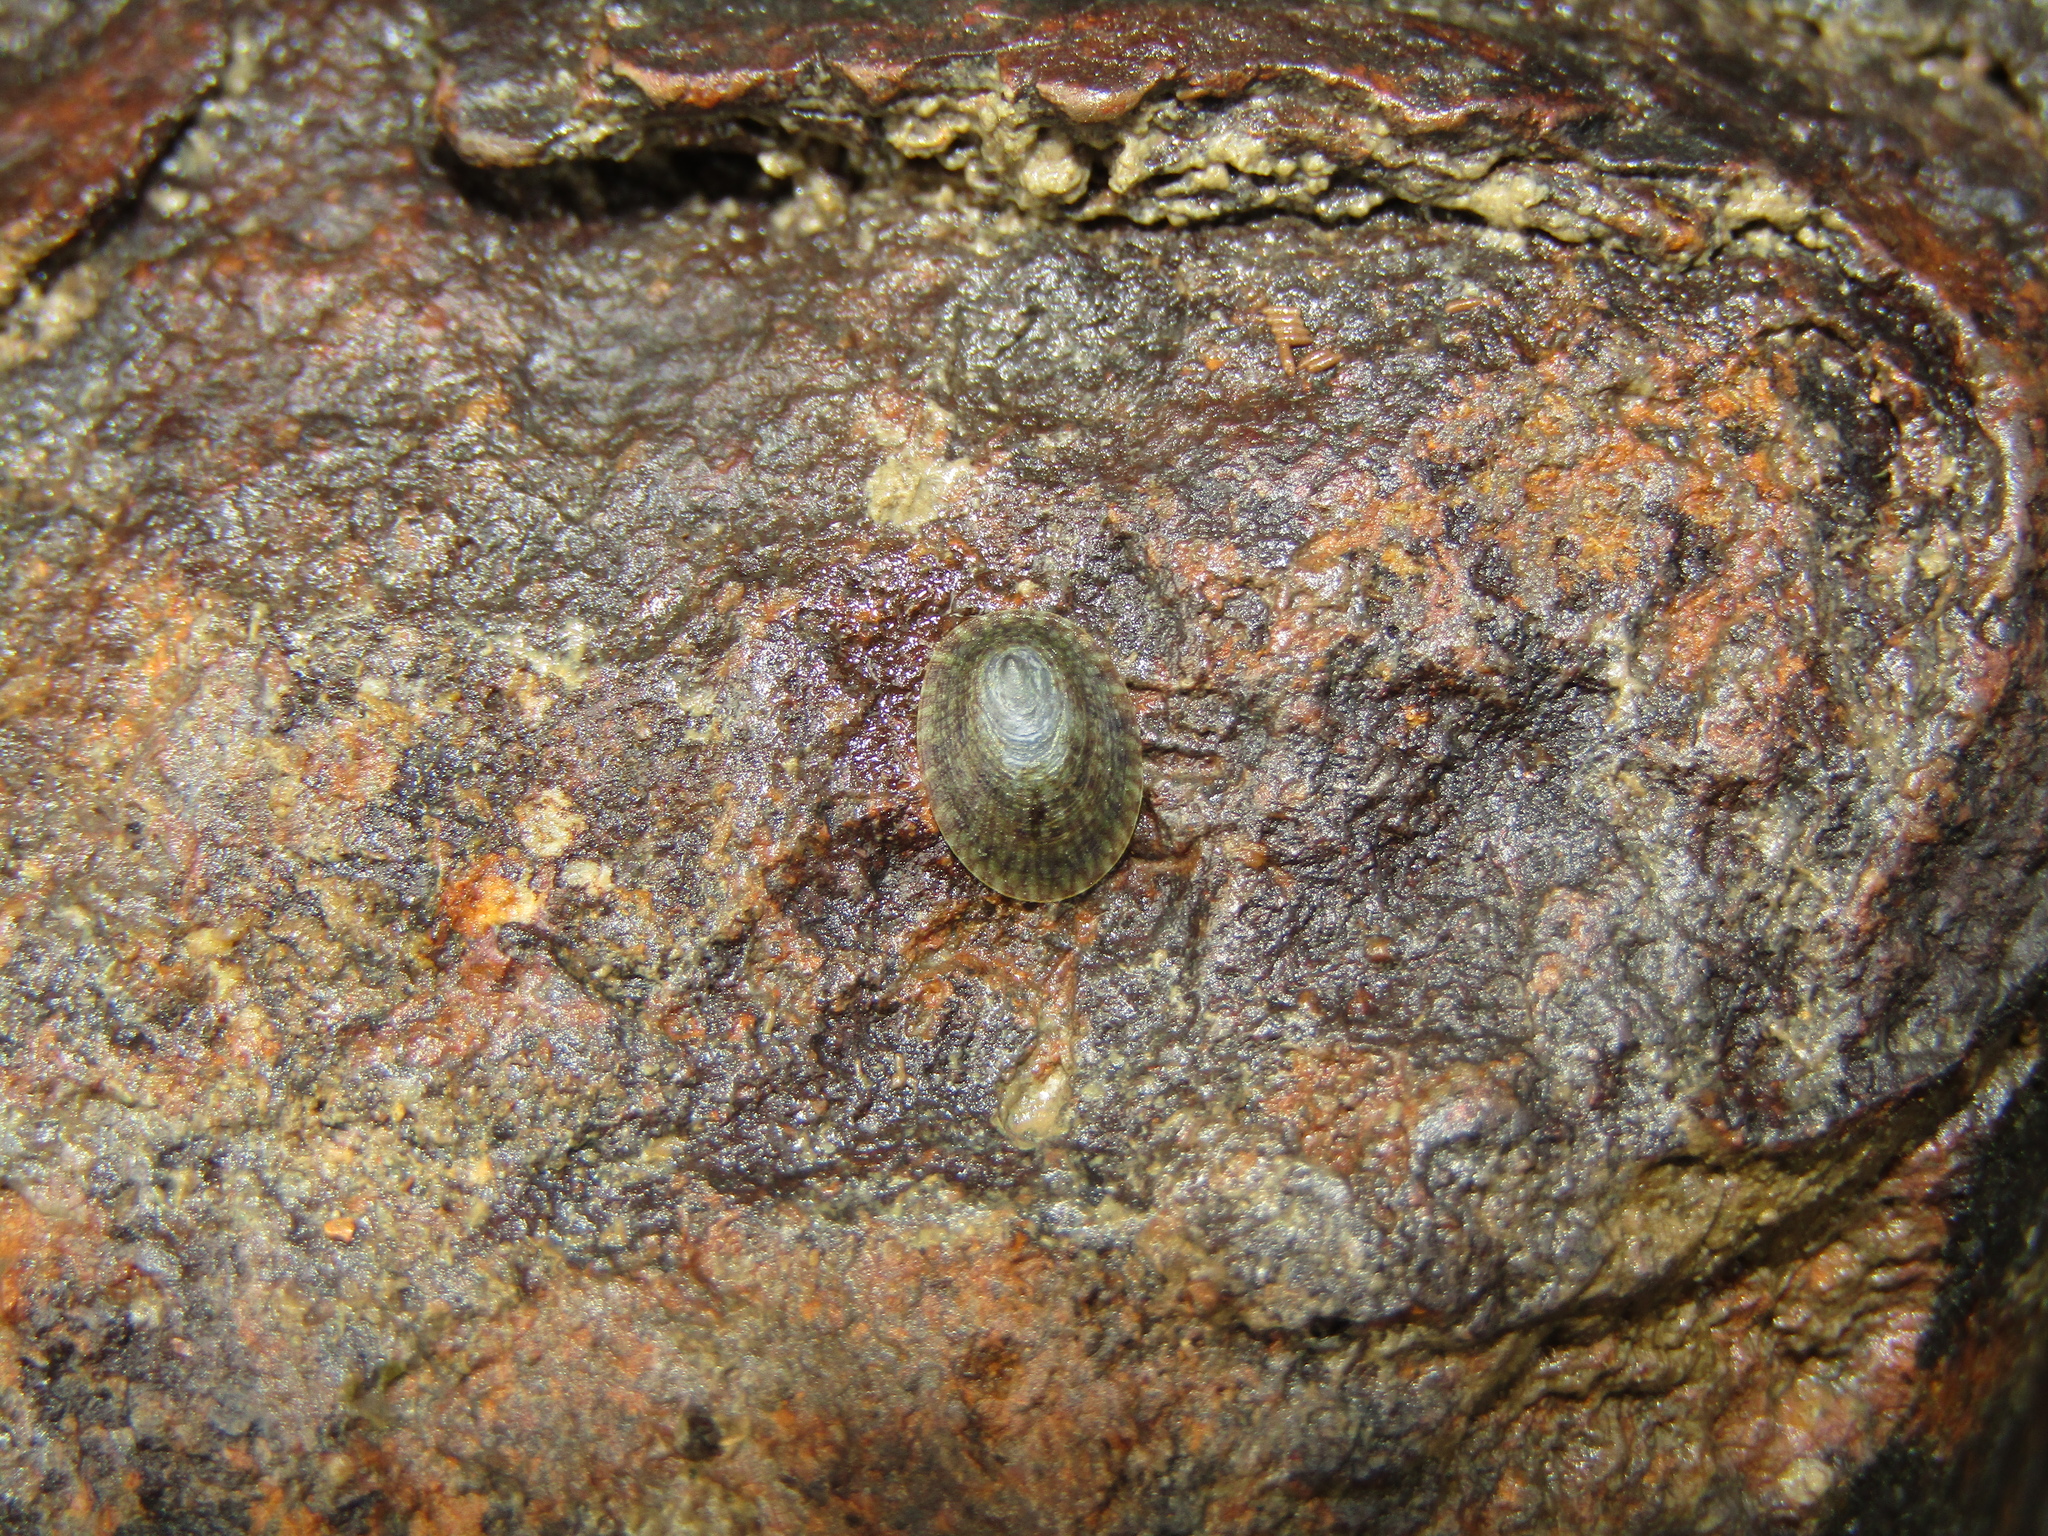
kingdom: Animalia
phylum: Mollusca
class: Gastropoda
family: Lottiidae
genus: Notoacmea
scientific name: Notoacmea
